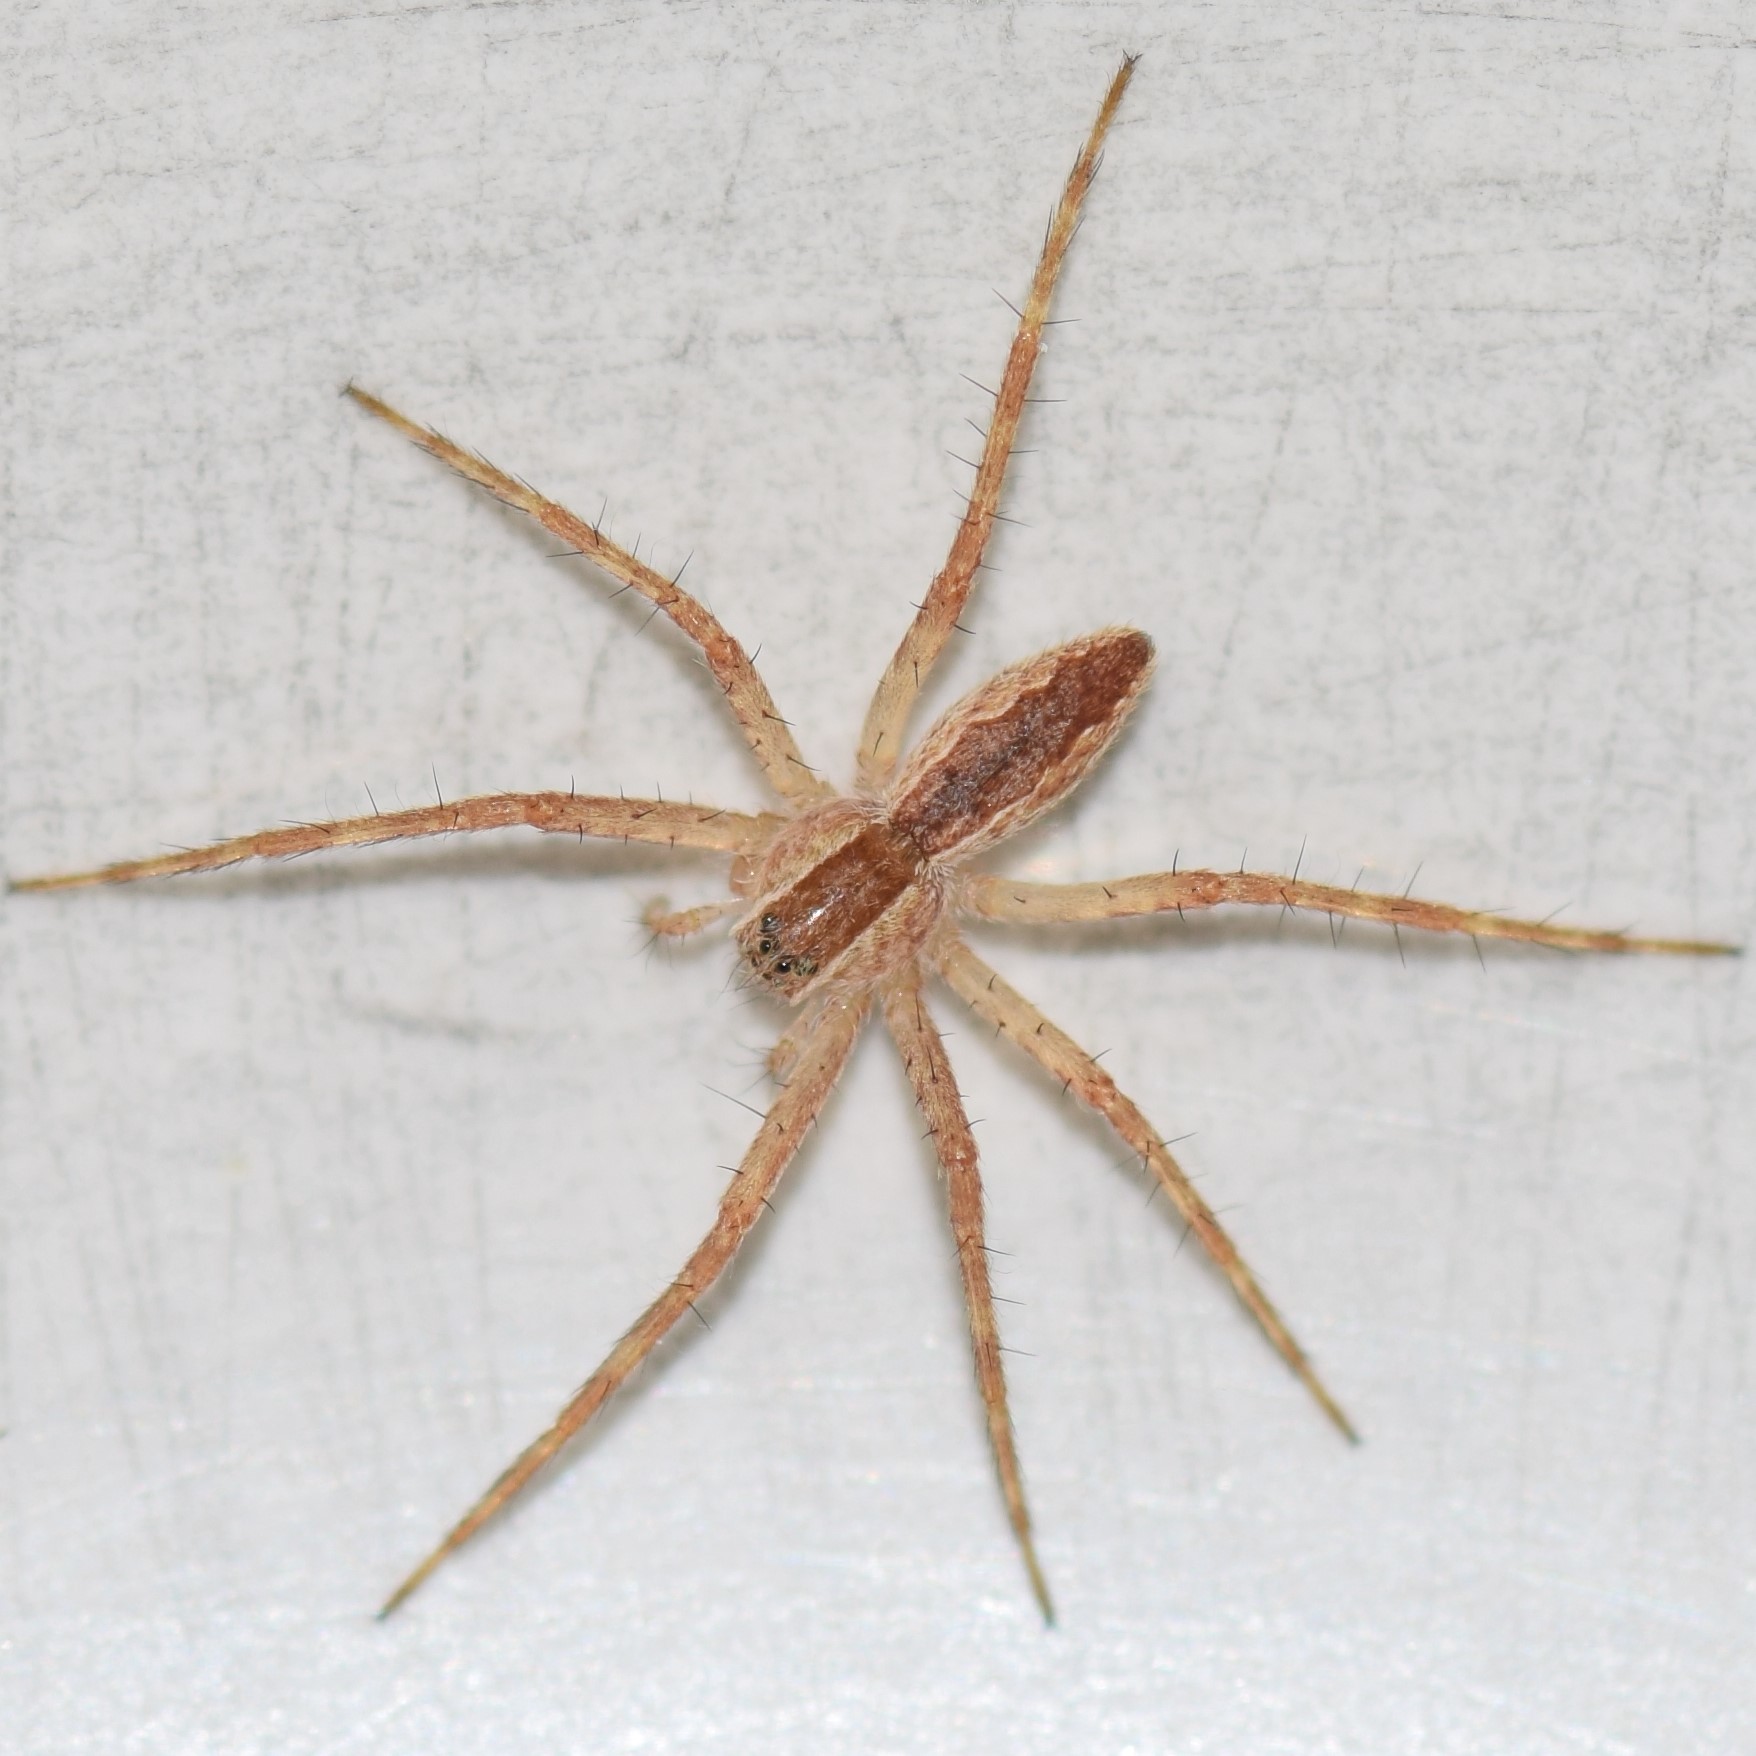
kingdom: Animalia
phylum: Arthropoda
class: Arachnida
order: Araneae
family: Pisauridae
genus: Pisaurina
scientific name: Pisaurina mira
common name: American nursery web spider
